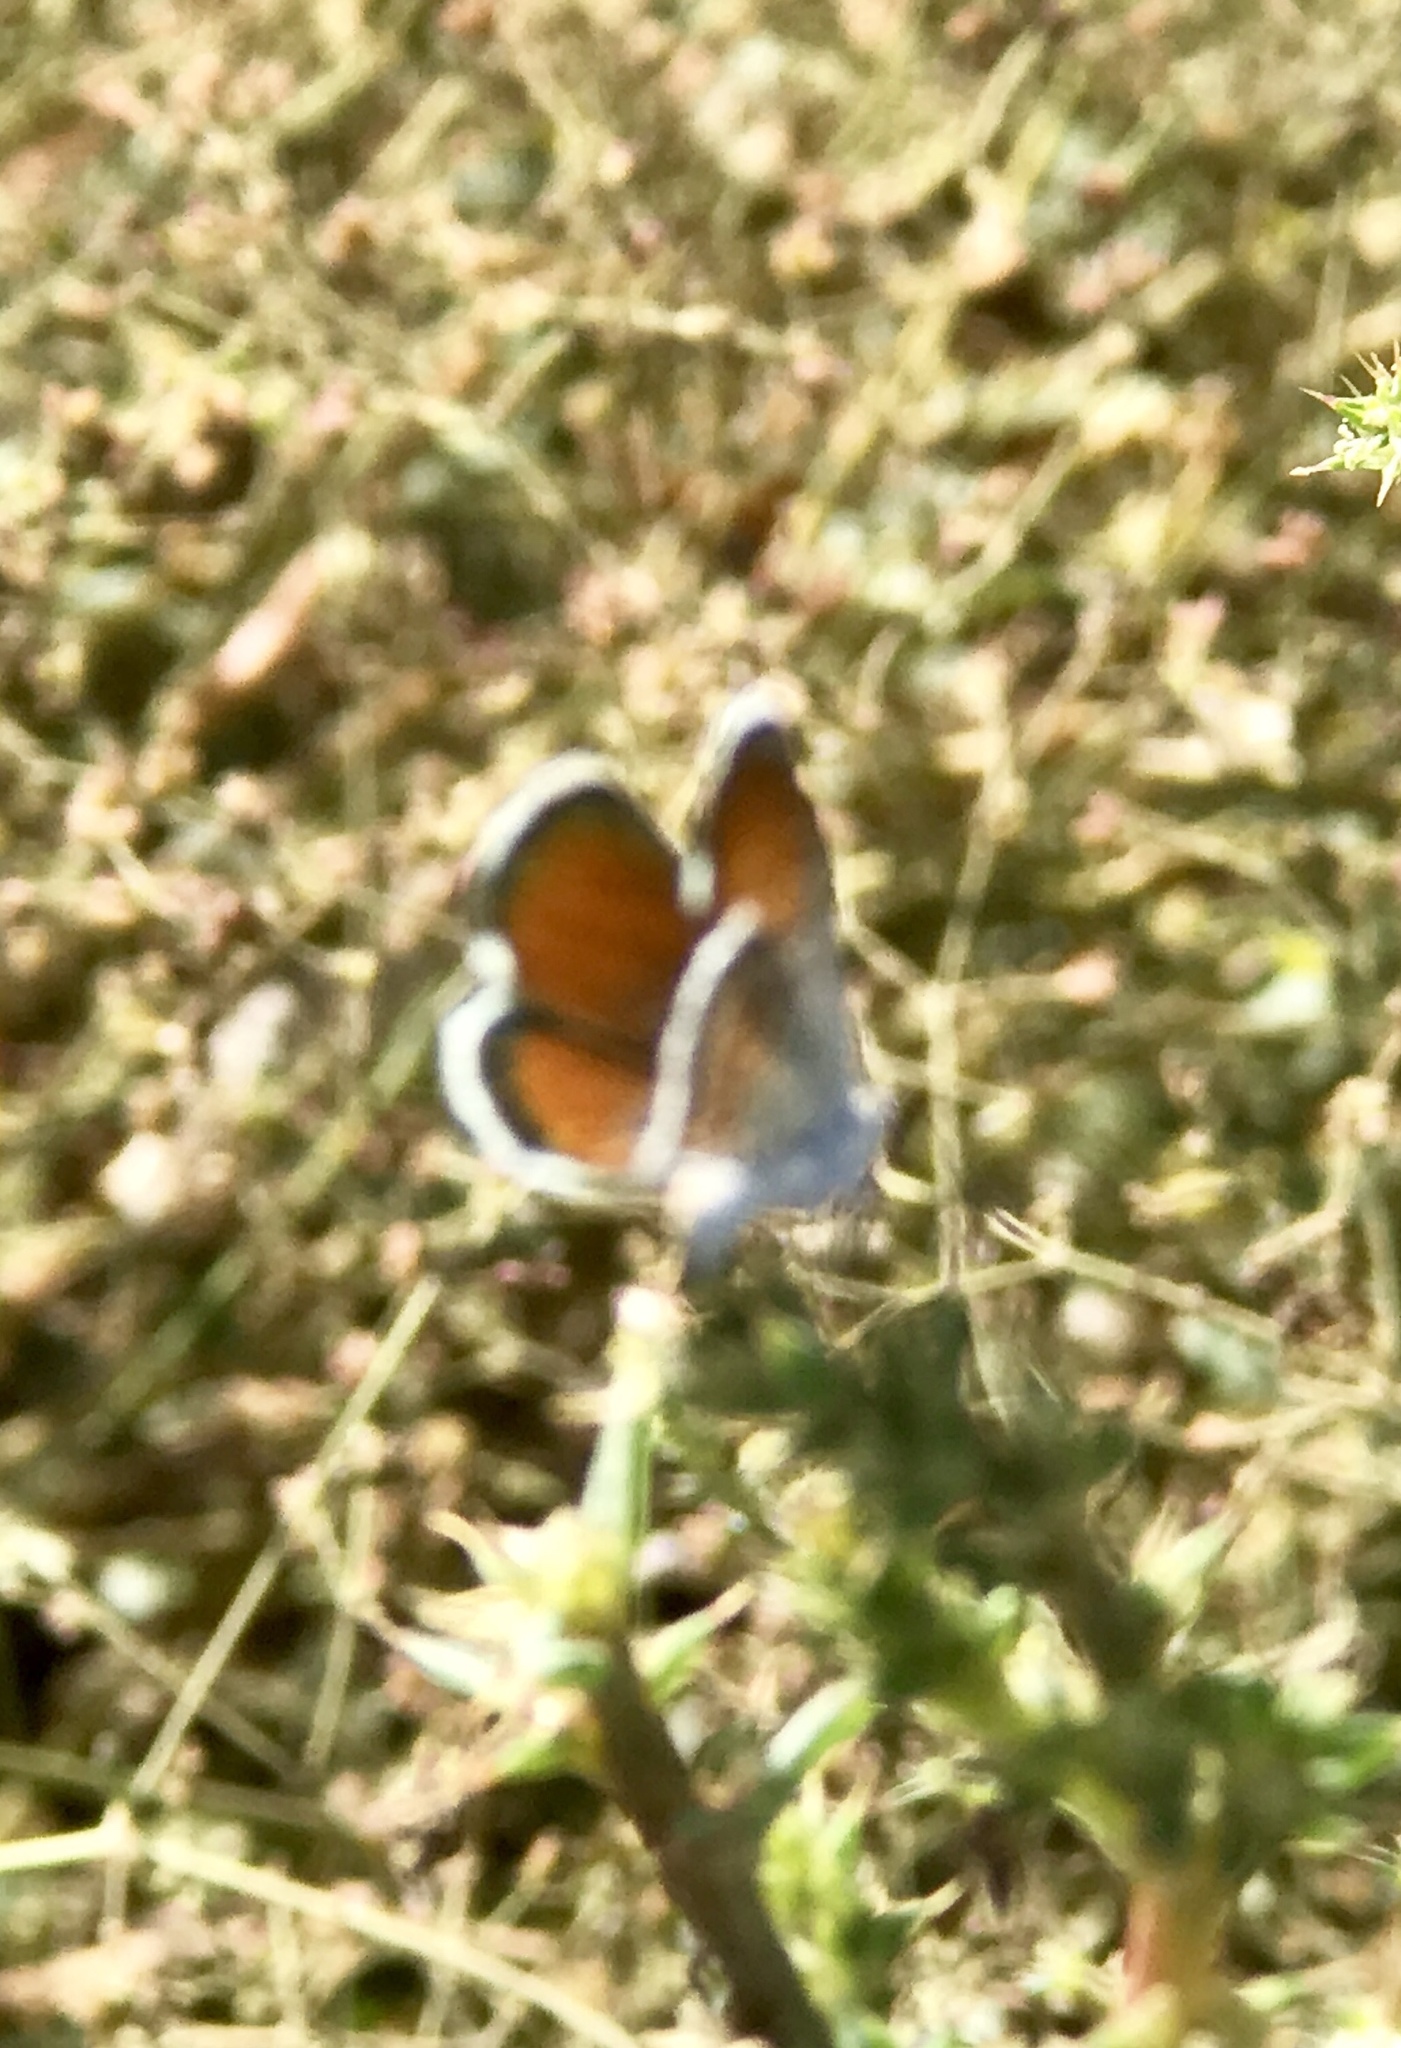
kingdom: Animalia
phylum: Arthropoda
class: Insecta
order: Lepidoptera
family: Lycaenidae
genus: Brephidium
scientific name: Brephidium exilis
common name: Pygmy blue
